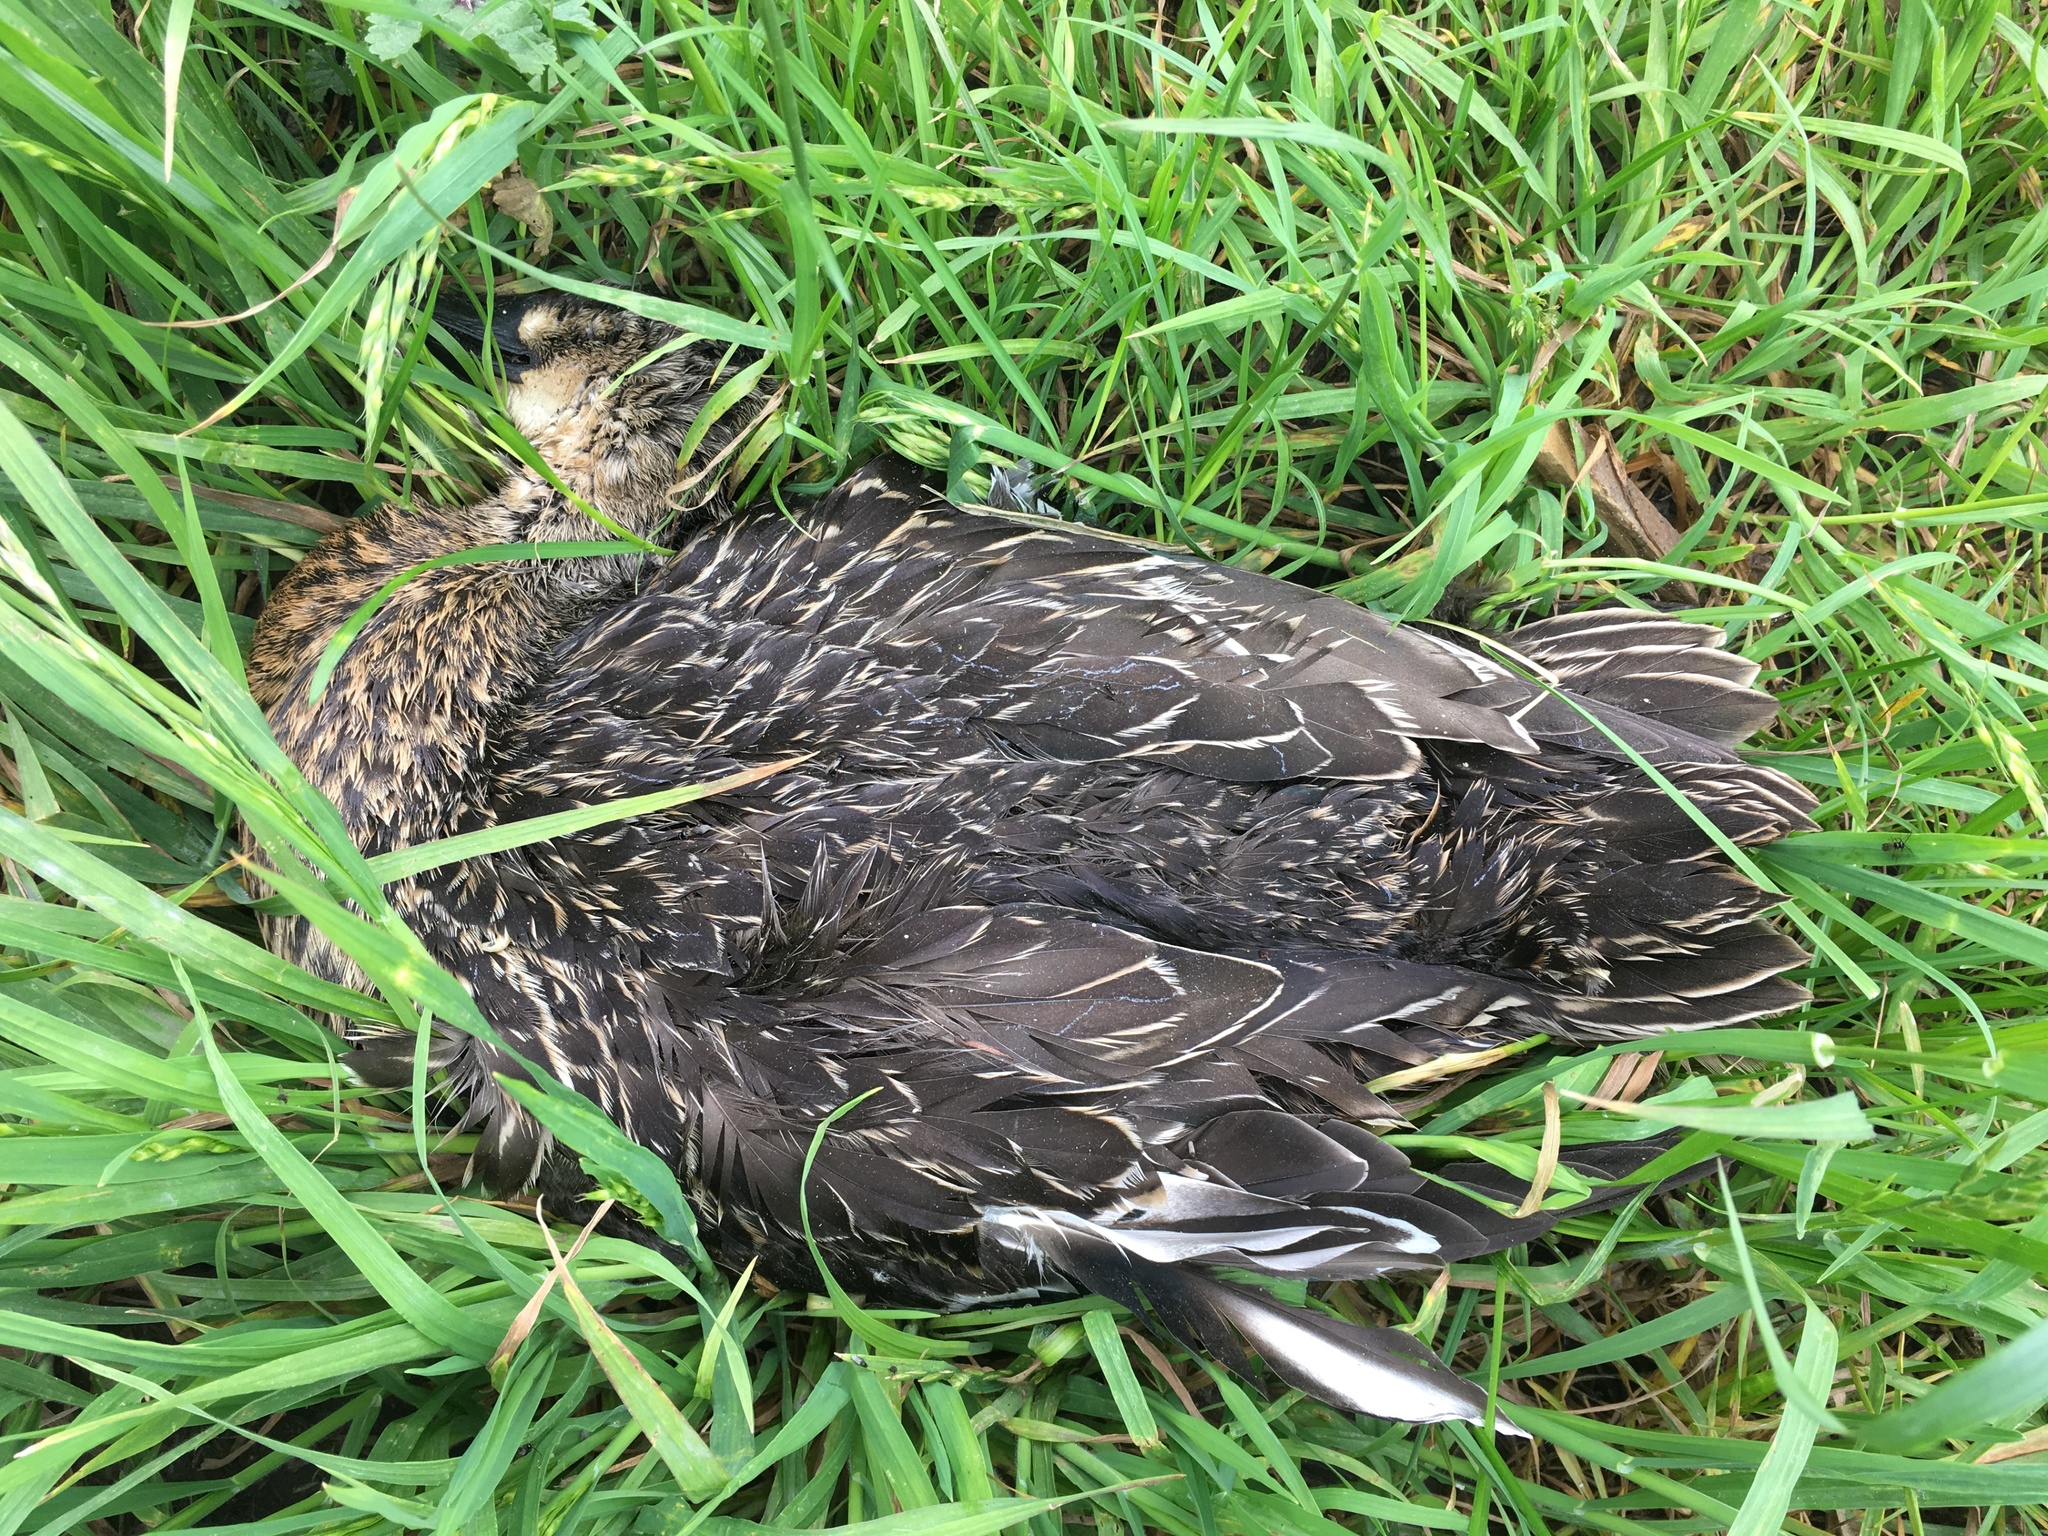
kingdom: Animalia
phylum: Chordata
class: Aves
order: Anseriformes
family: Anatidae
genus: Anas
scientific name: Anas
